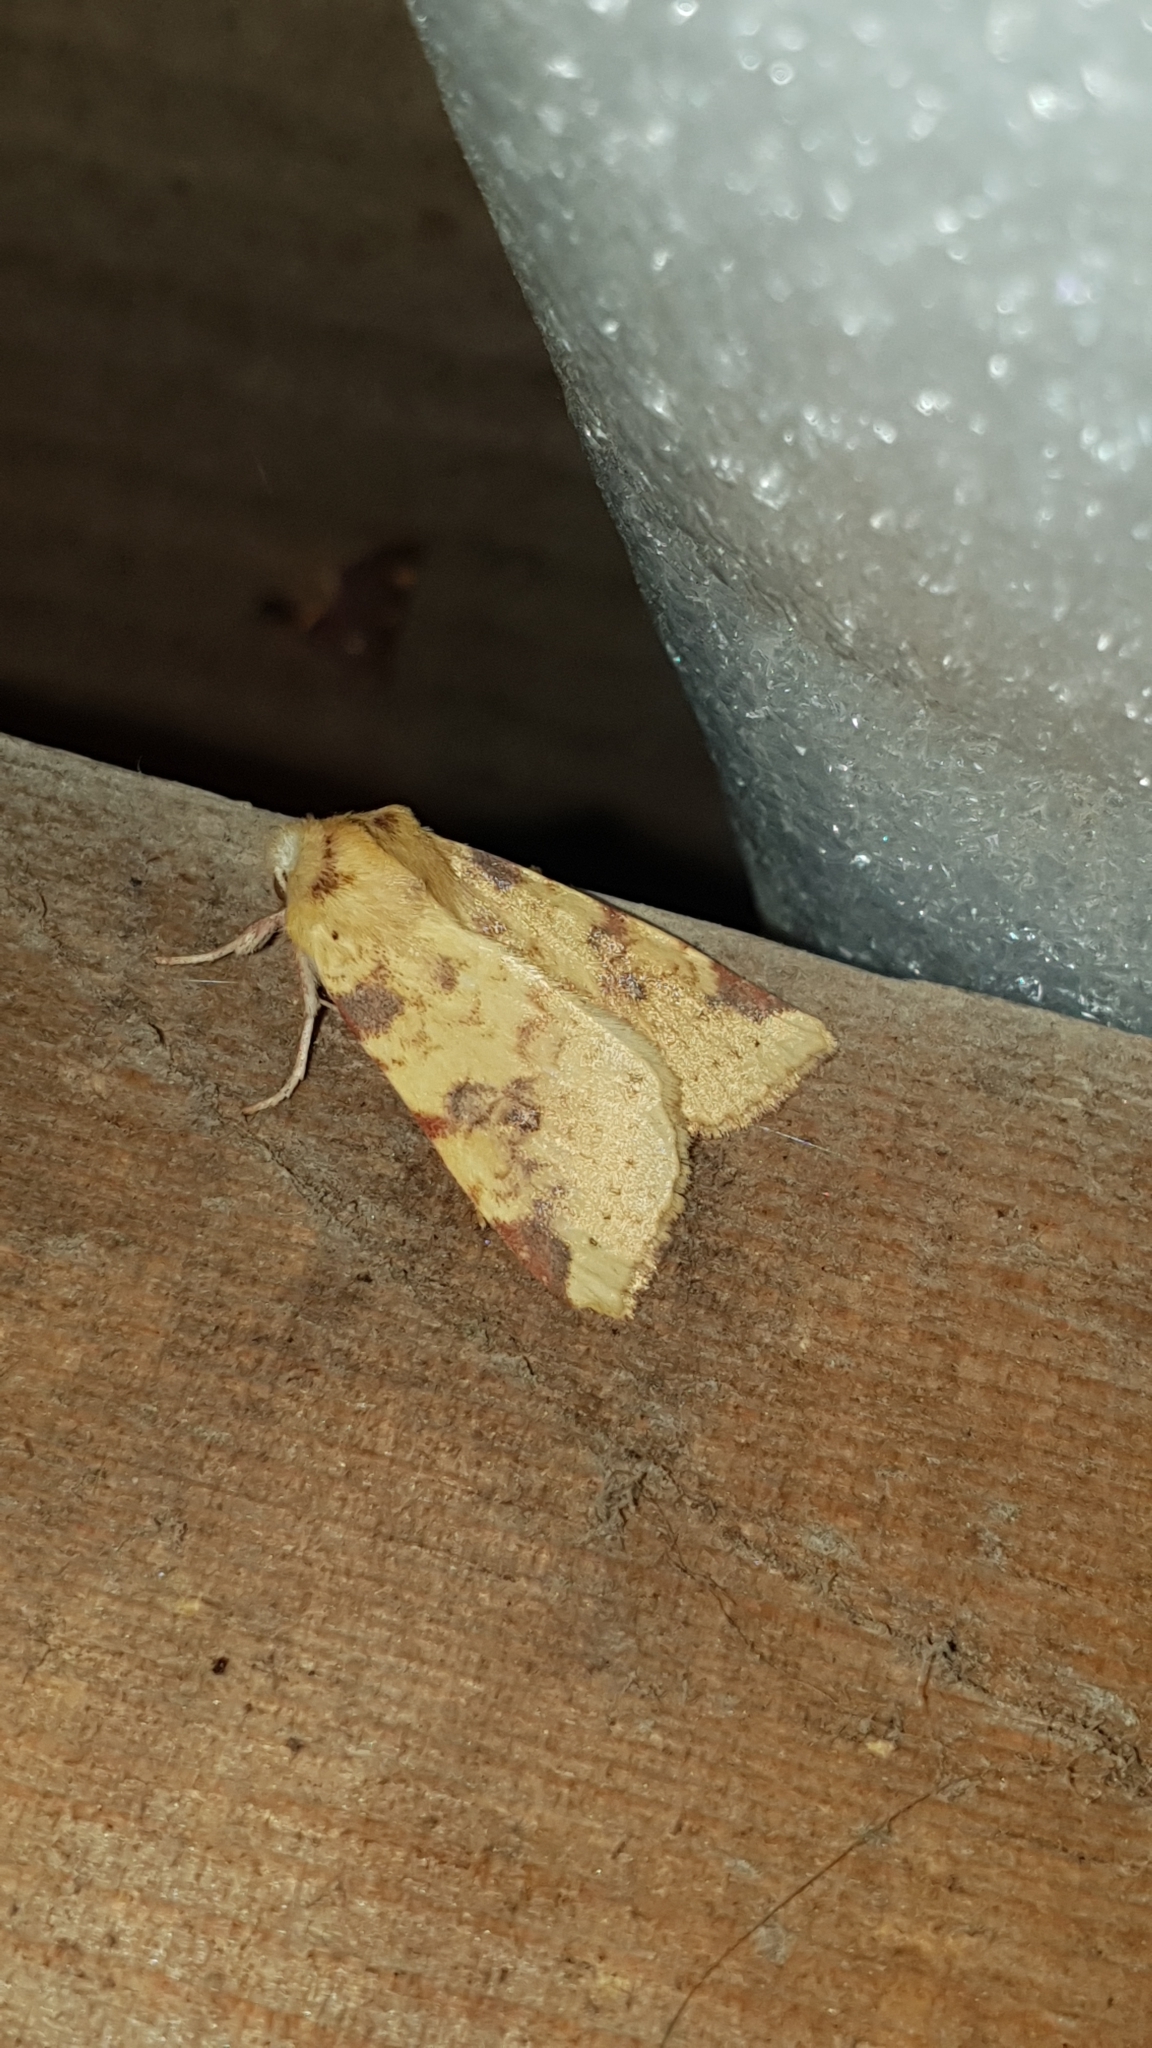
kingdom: Animalia
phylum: Arthropoda
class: Insecta
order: Lepidoptera
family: Noctuidae
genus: Xanthia
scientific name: Xanthia icteritia
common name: The sallow
